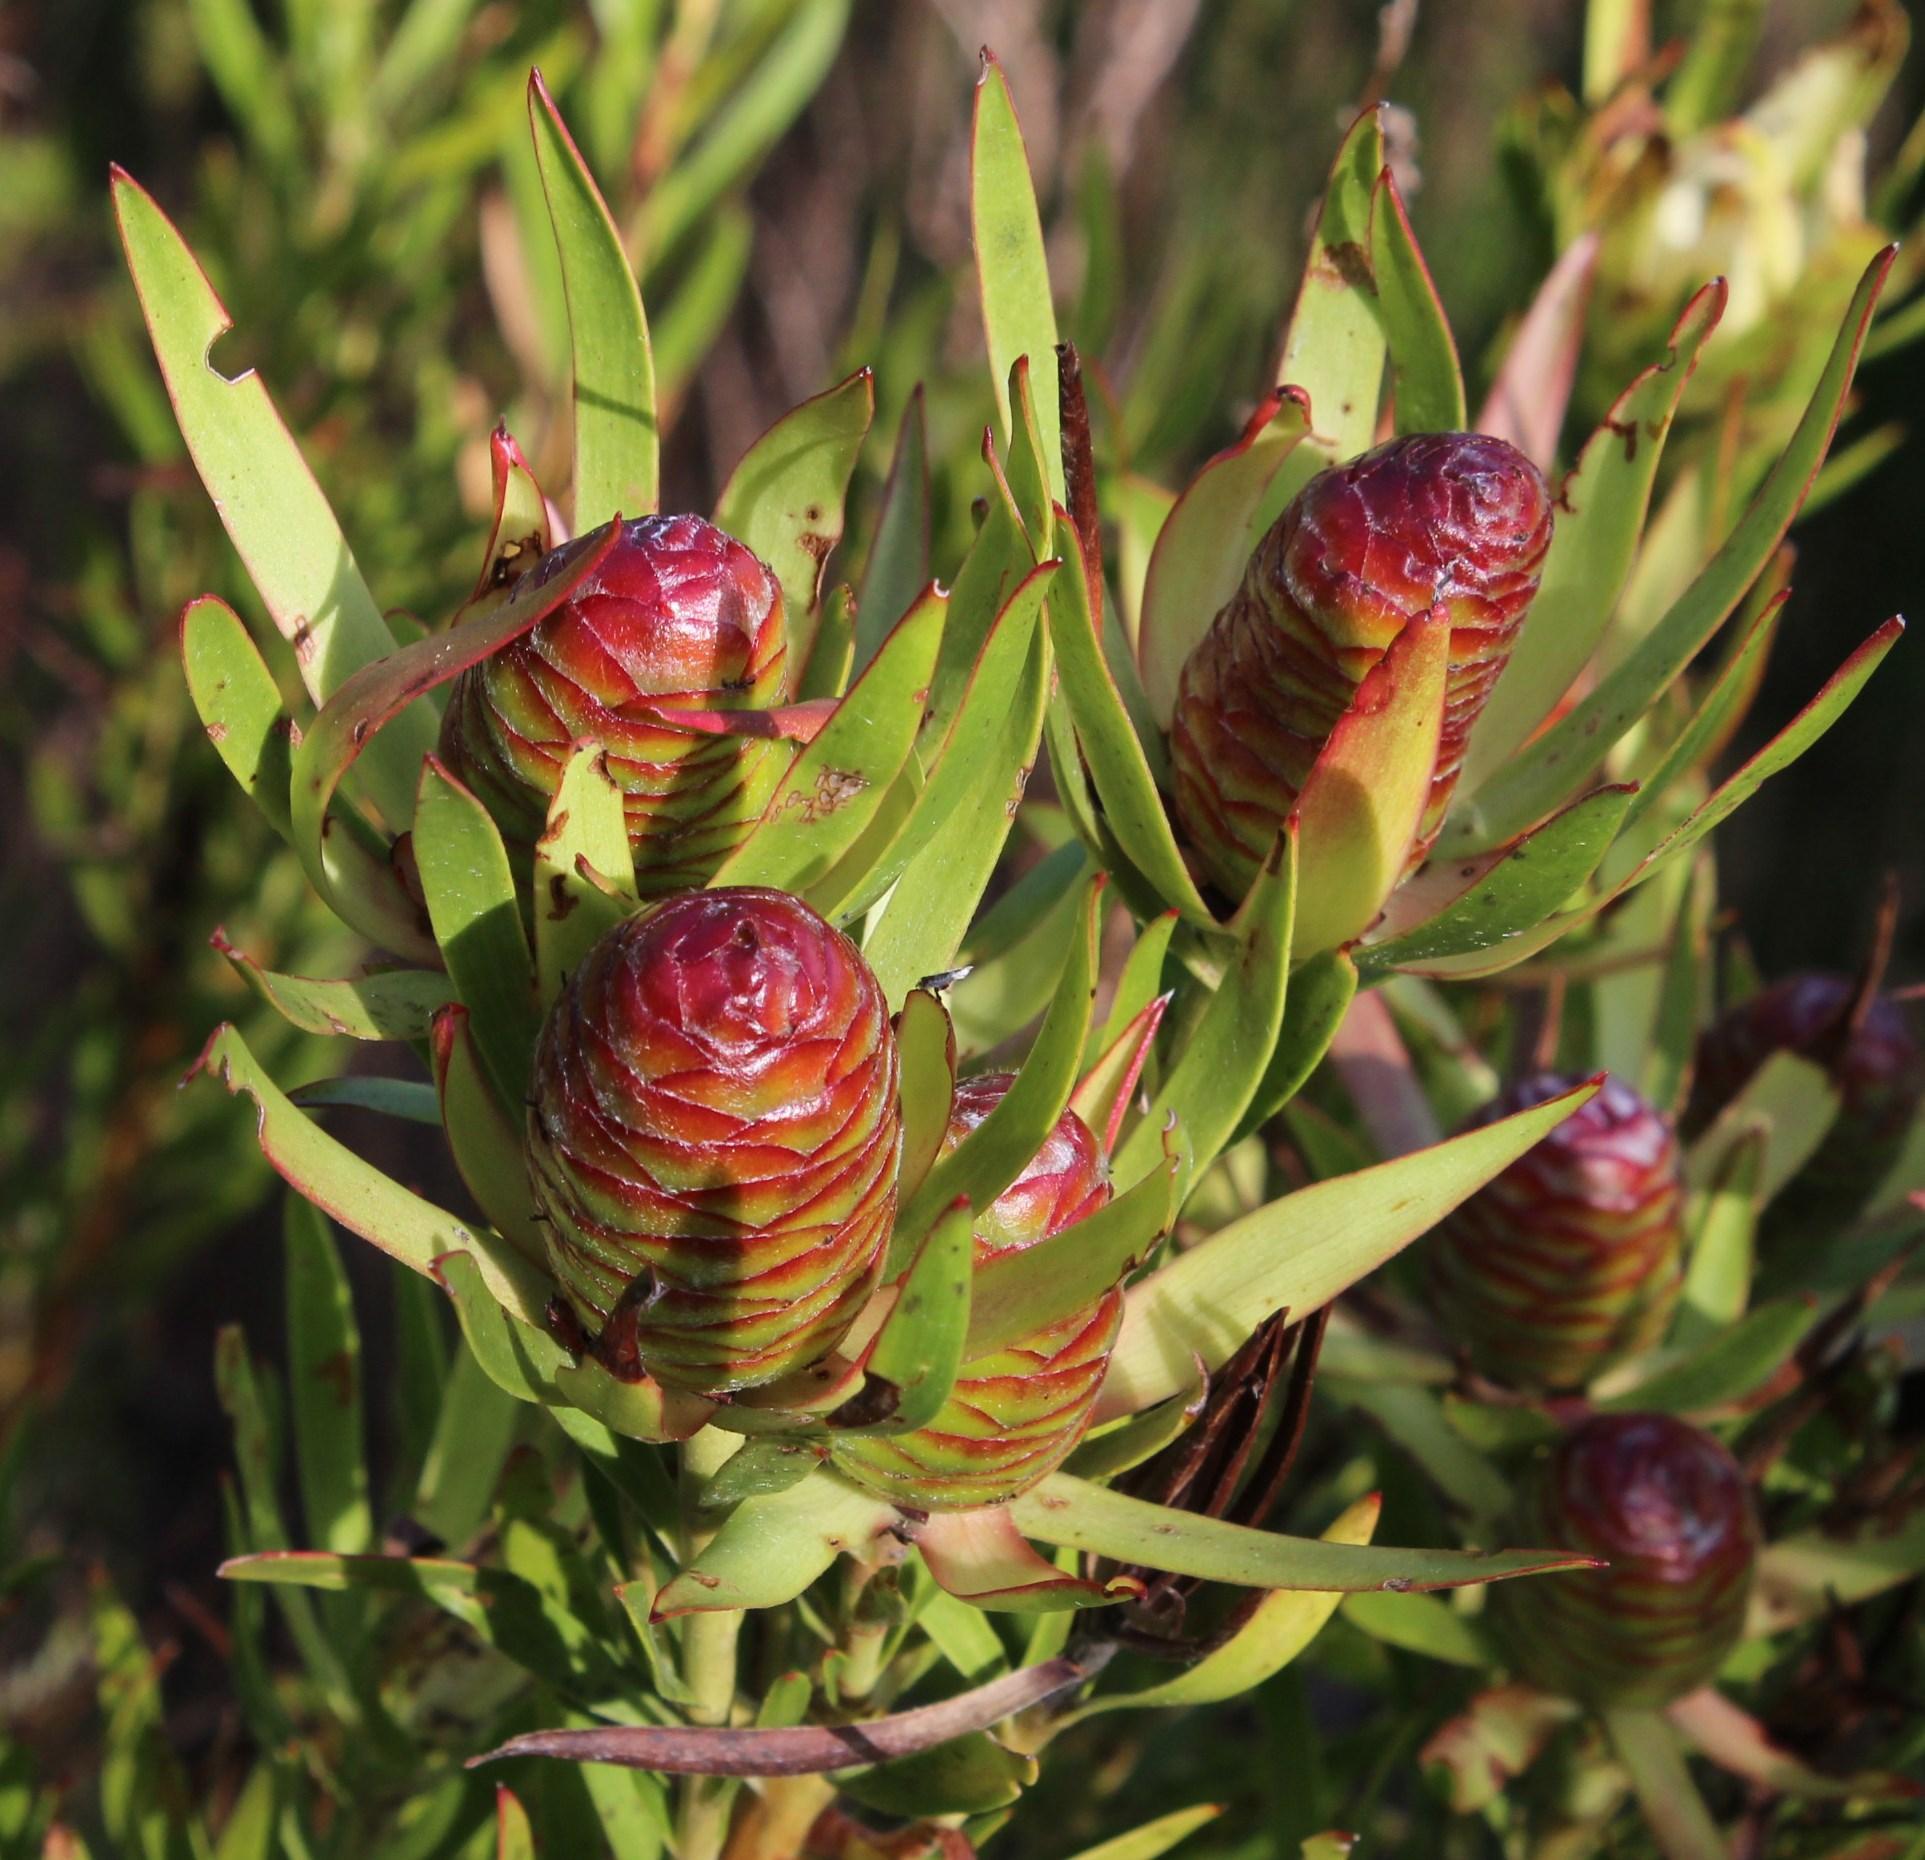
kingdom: Plantae
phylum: Tracheophyta
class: Magnoliopsida
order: Proteales
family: Proteaceae
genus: Leucadendron
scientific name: Leucadendron xanthoconus
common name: Sickle-leaf conebush
